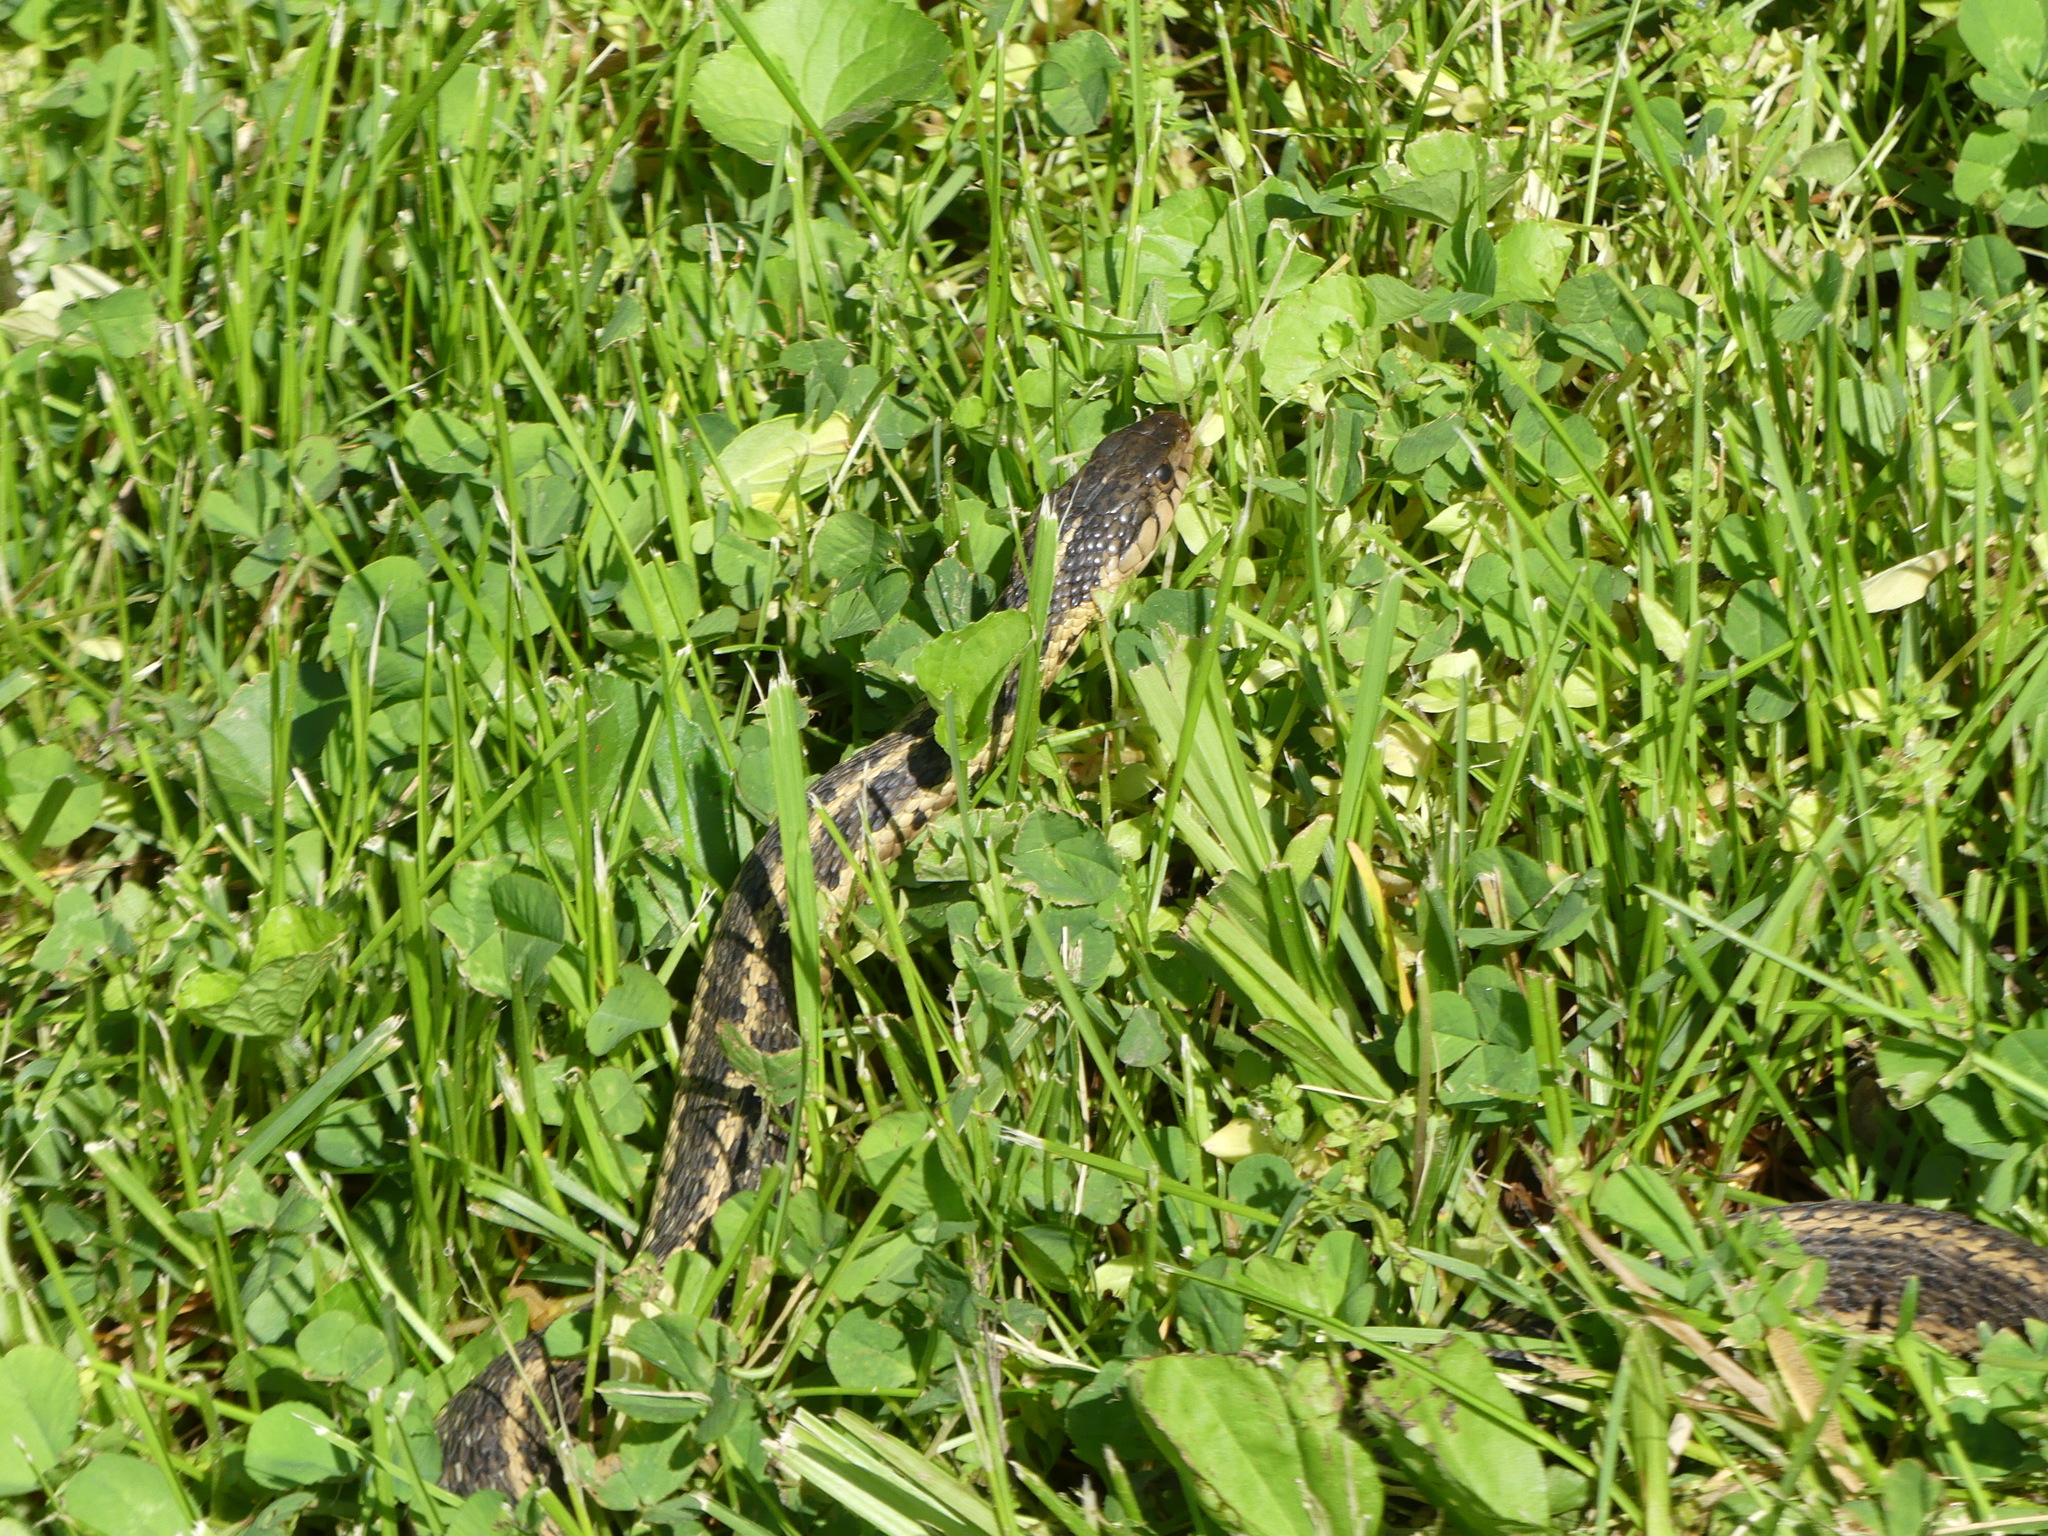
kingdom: Animalia
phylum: Chordata
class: Squamata
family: Colubridae
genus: Thamnophis
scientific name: Thamnophis sirtalis
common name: Common garter snake
